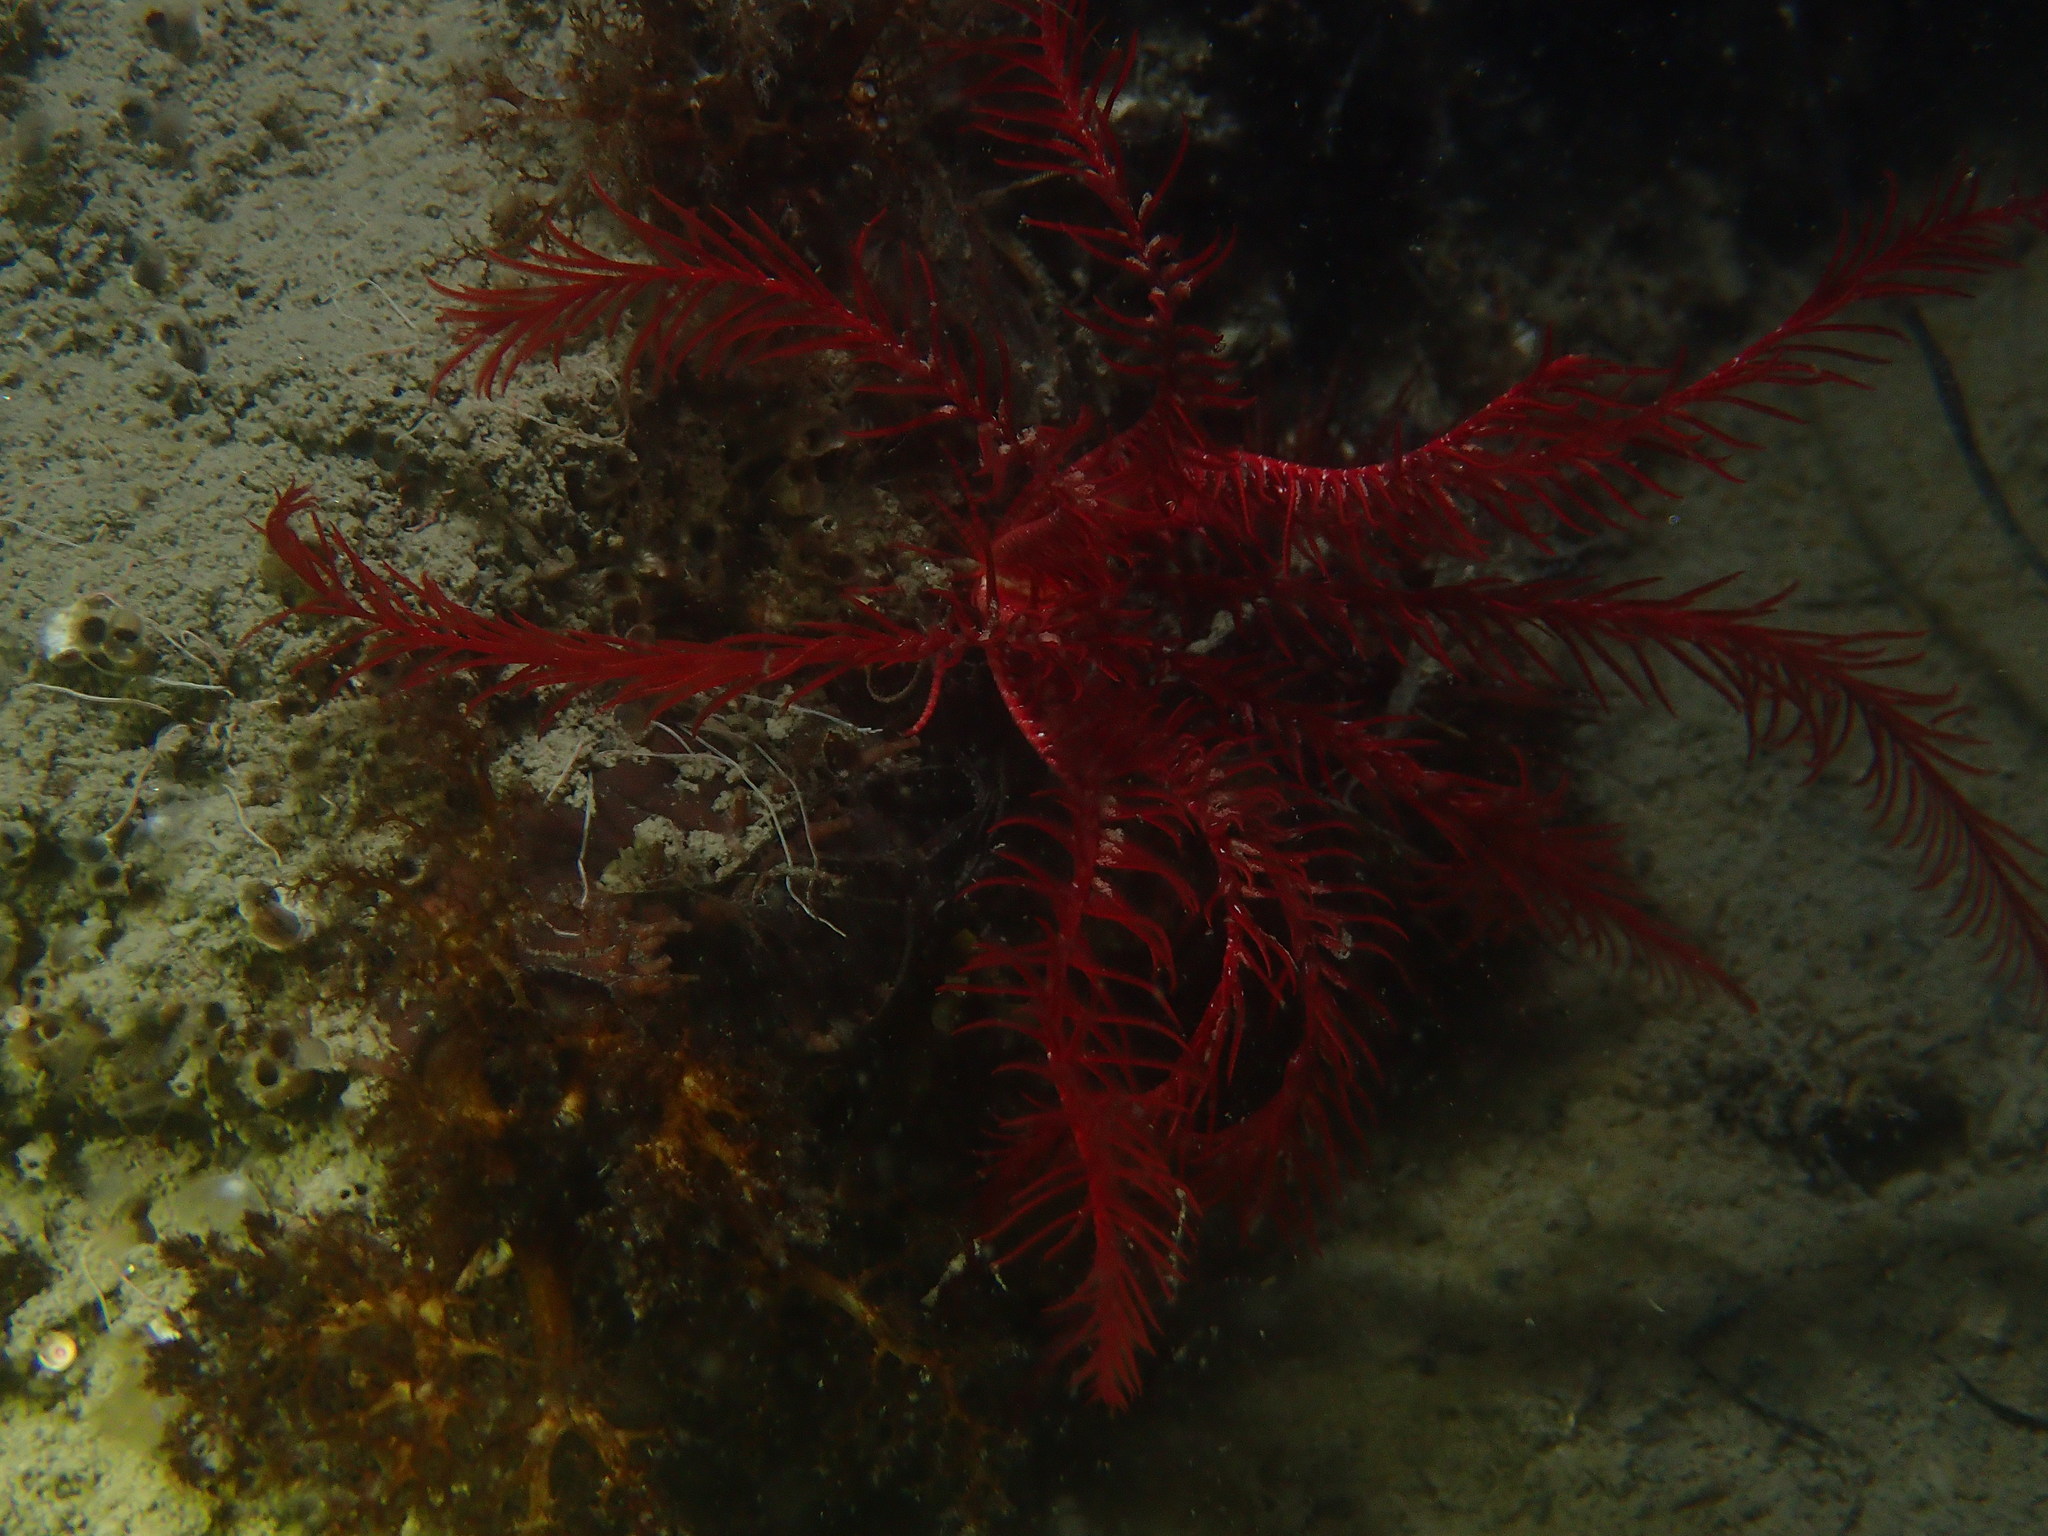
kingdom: Animalia
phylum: Echinodermata
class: Crinoidea
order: Comatulida
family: Antedonidae
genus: Antedon
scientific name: Antedon mediterranea
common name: Feather star
